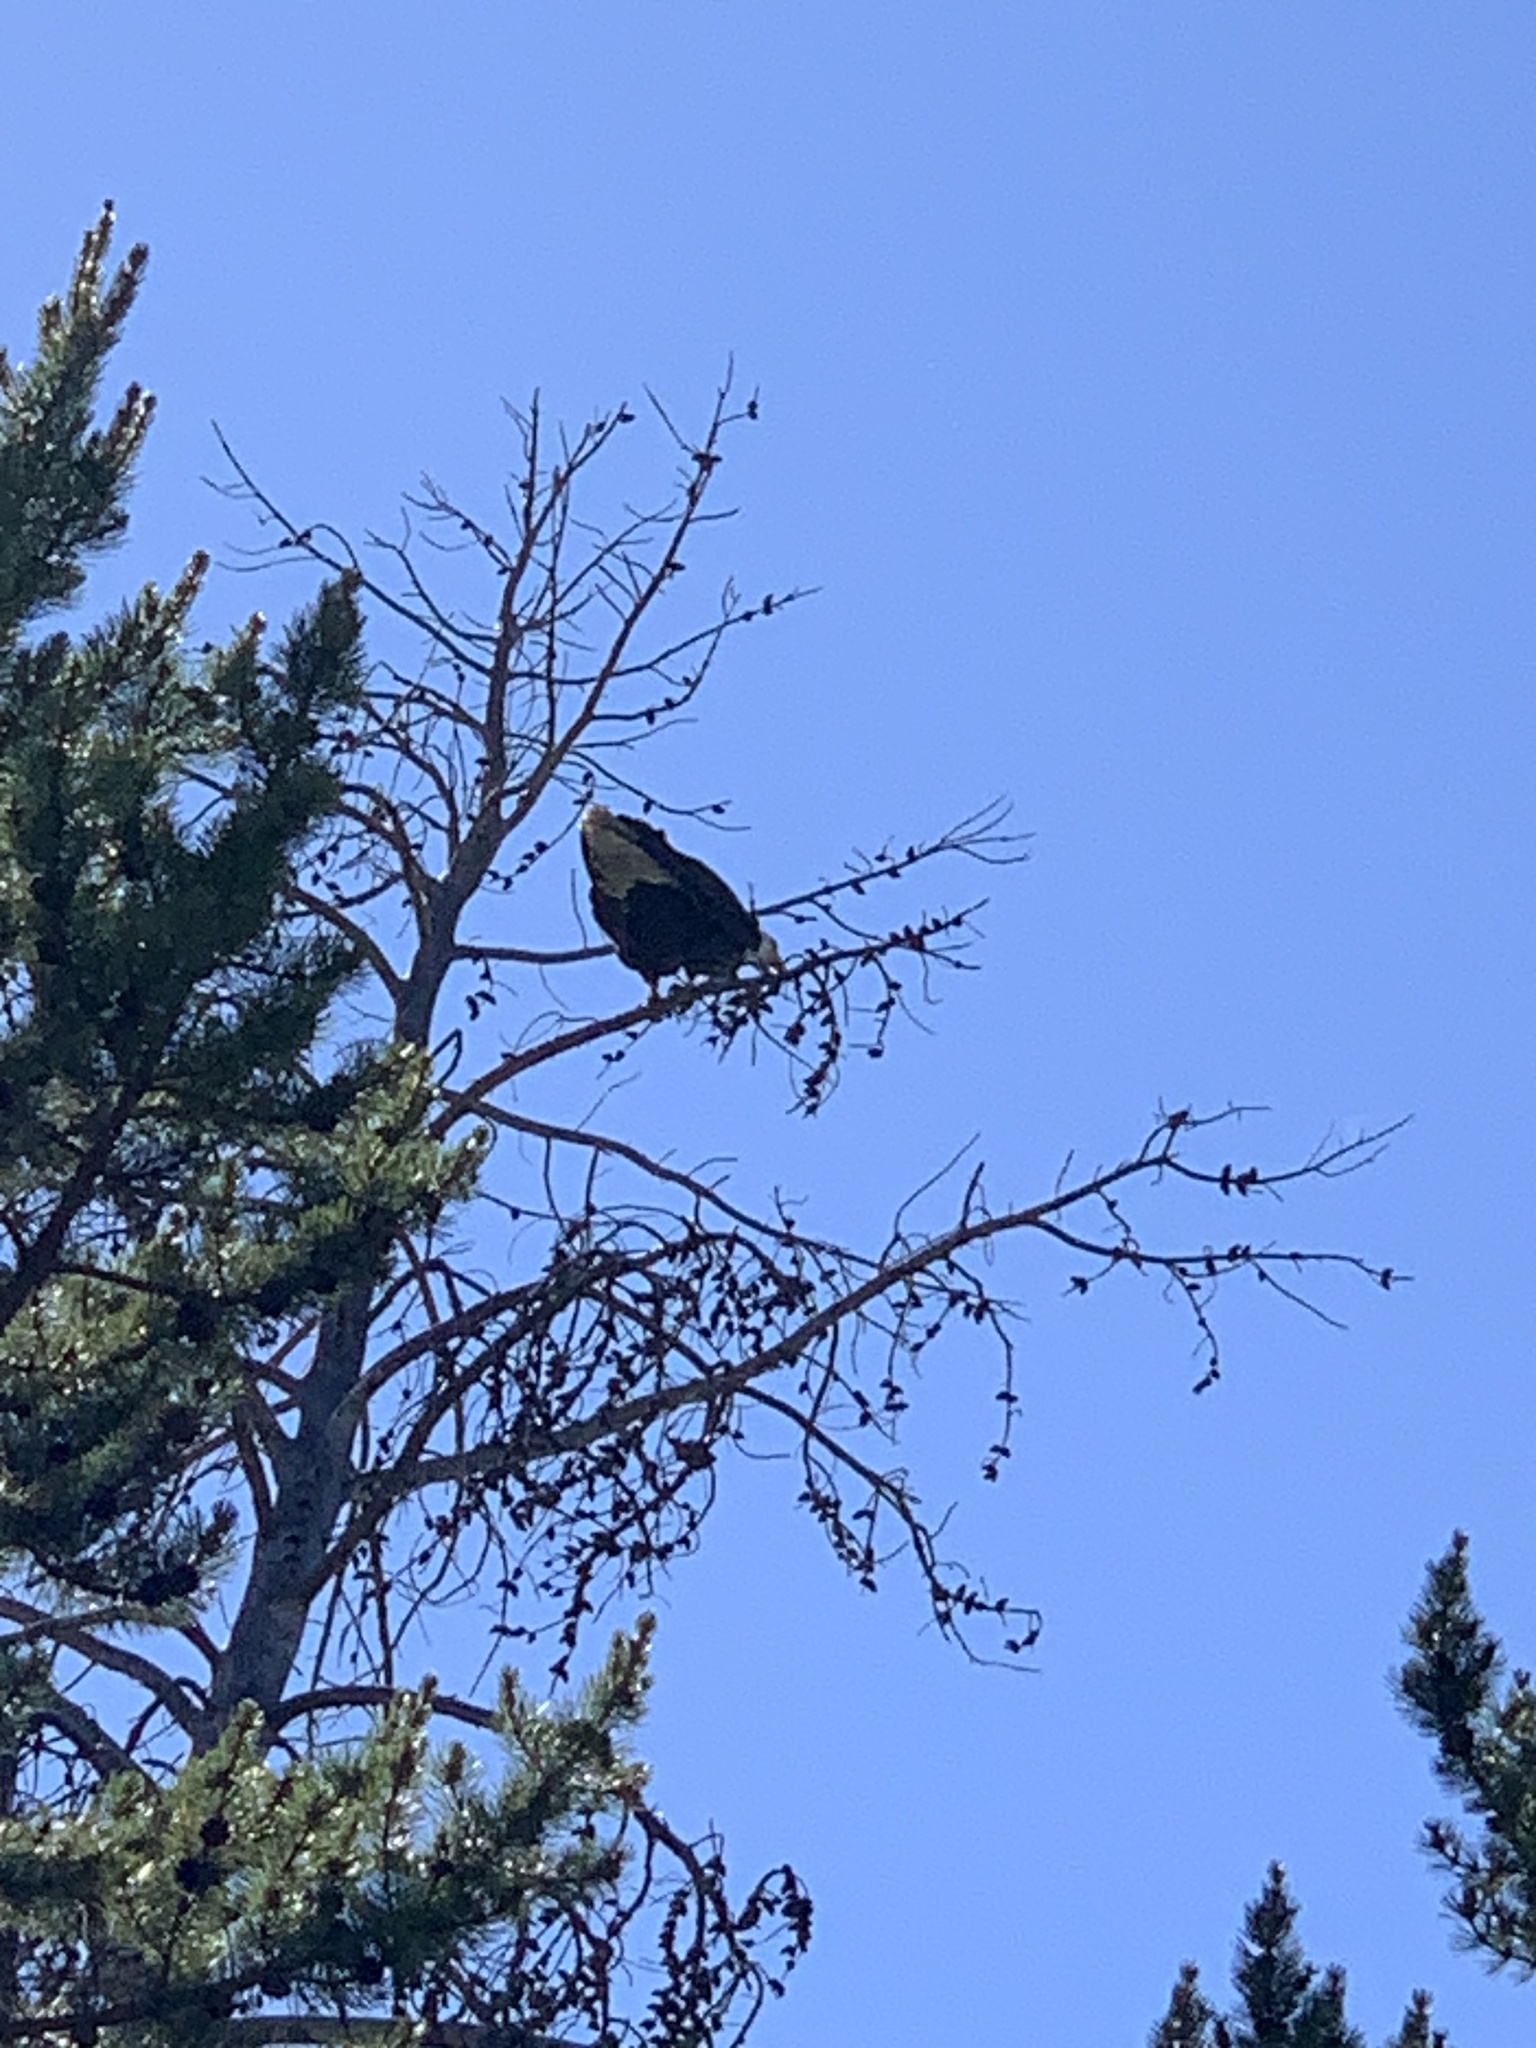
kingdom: Animalia
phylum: Chordata
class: Aves
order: Accipitriformes
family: Accipitridae
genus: Haliaeetus
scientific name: Haliaeetus leucocephalus
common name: Bald eagle
